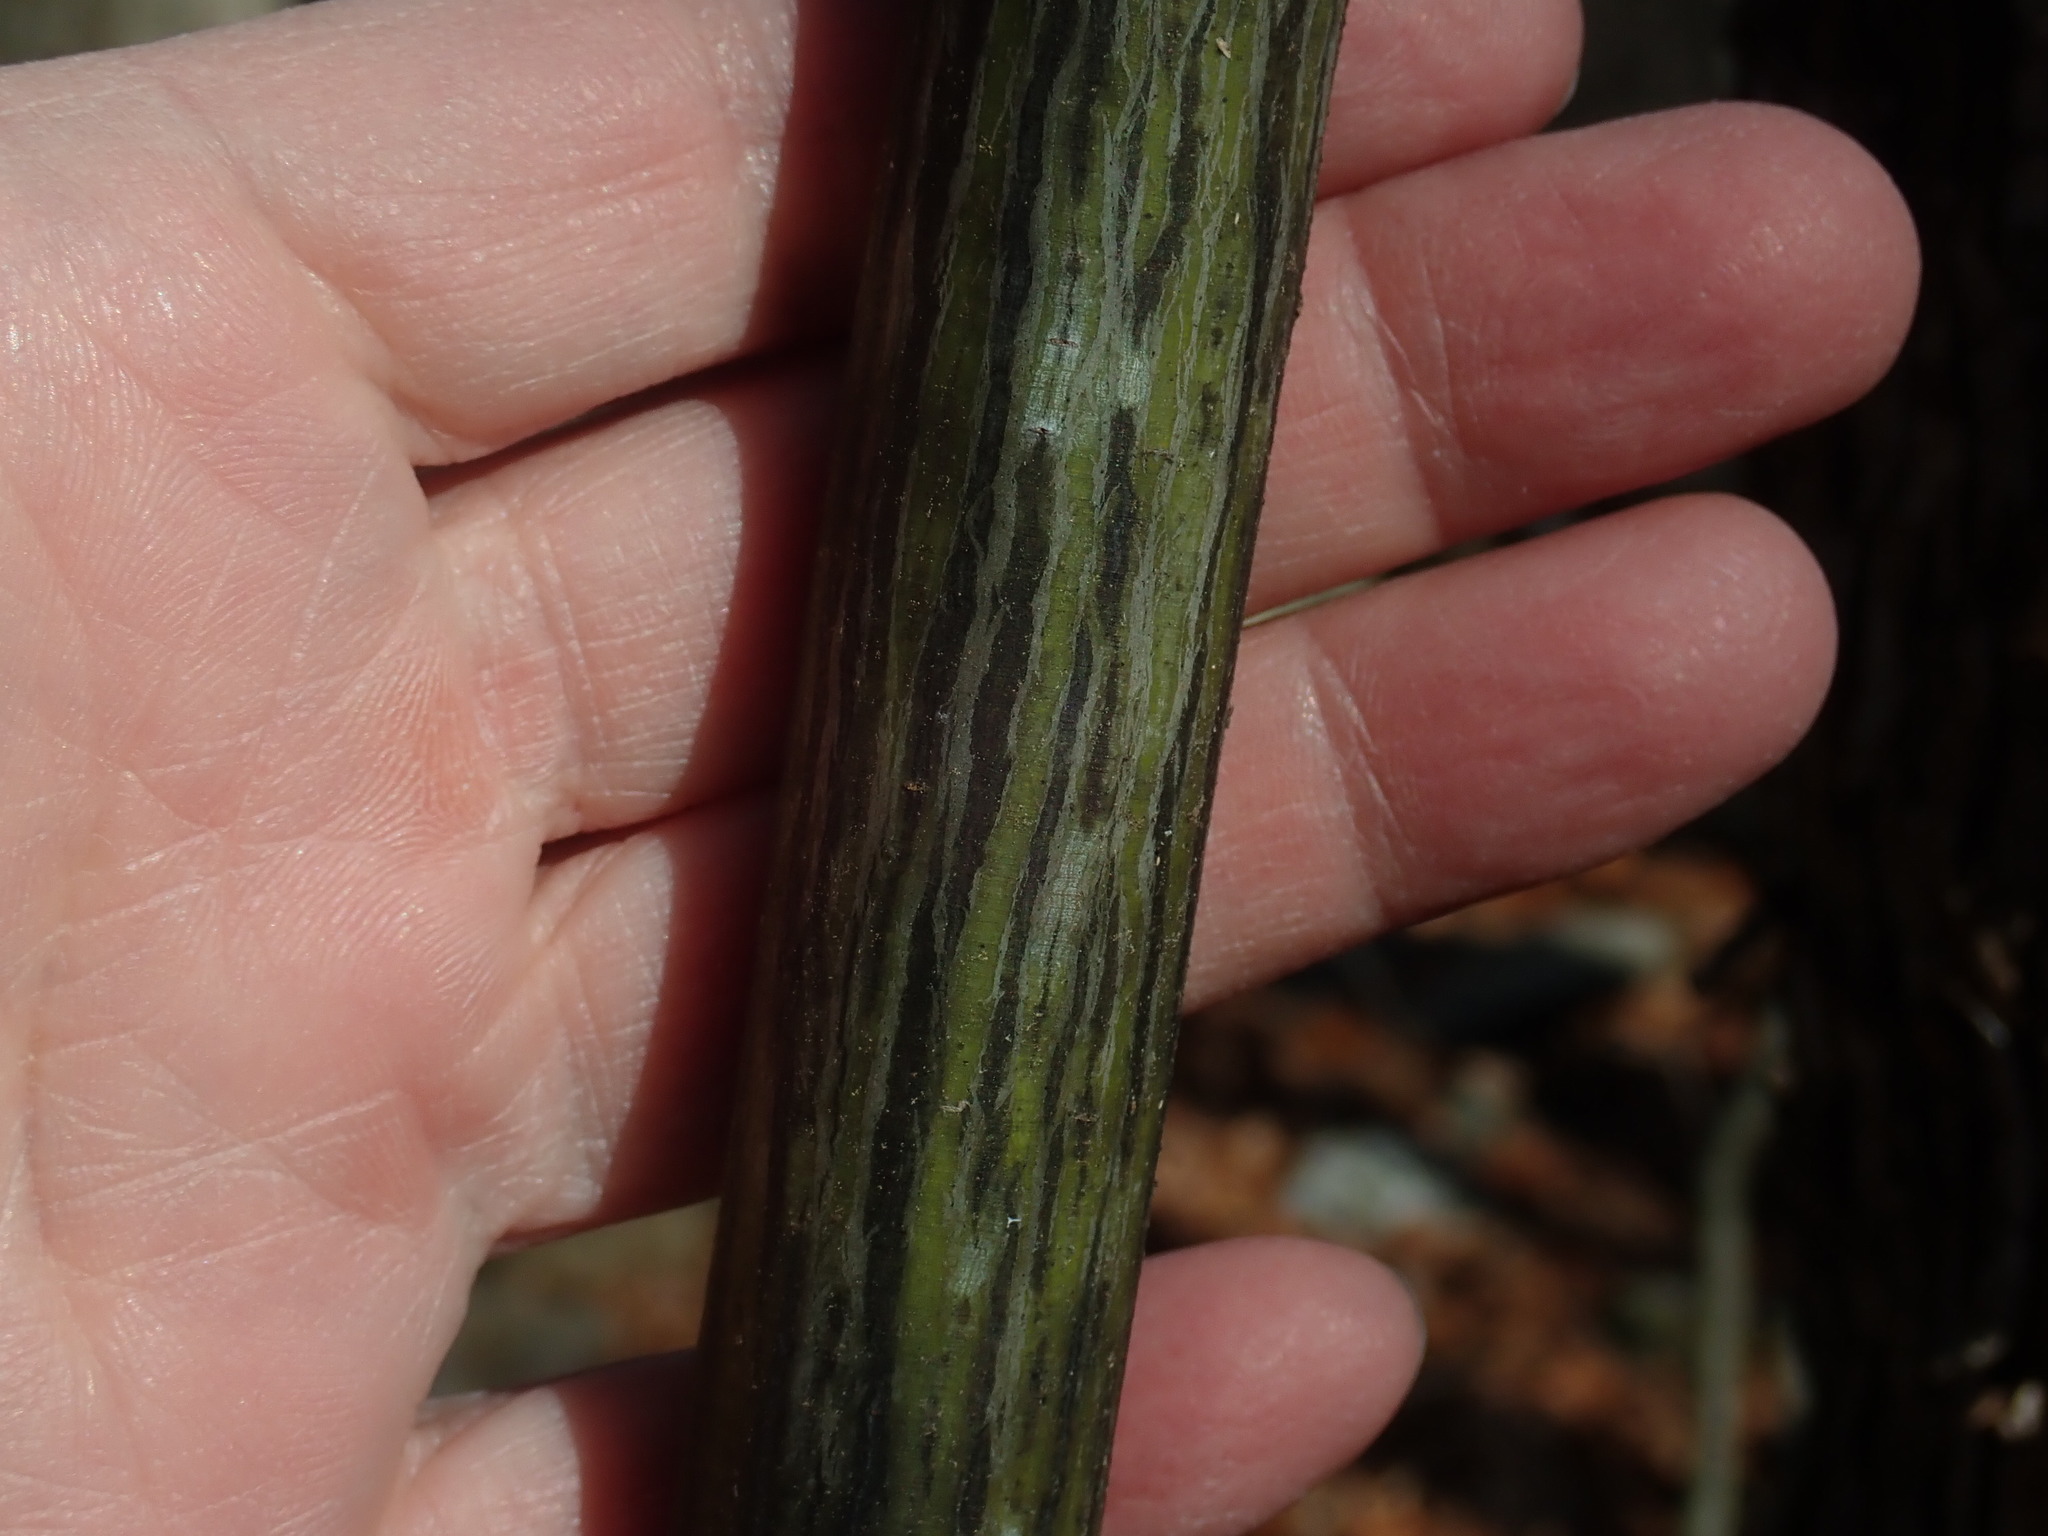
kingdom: Plantae
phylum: Tracheophyta
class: Magnoliopsida
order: Sapindales
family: Sapindaceae
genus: Acer
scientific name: Acer pensylvanicum
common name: Moosewood
